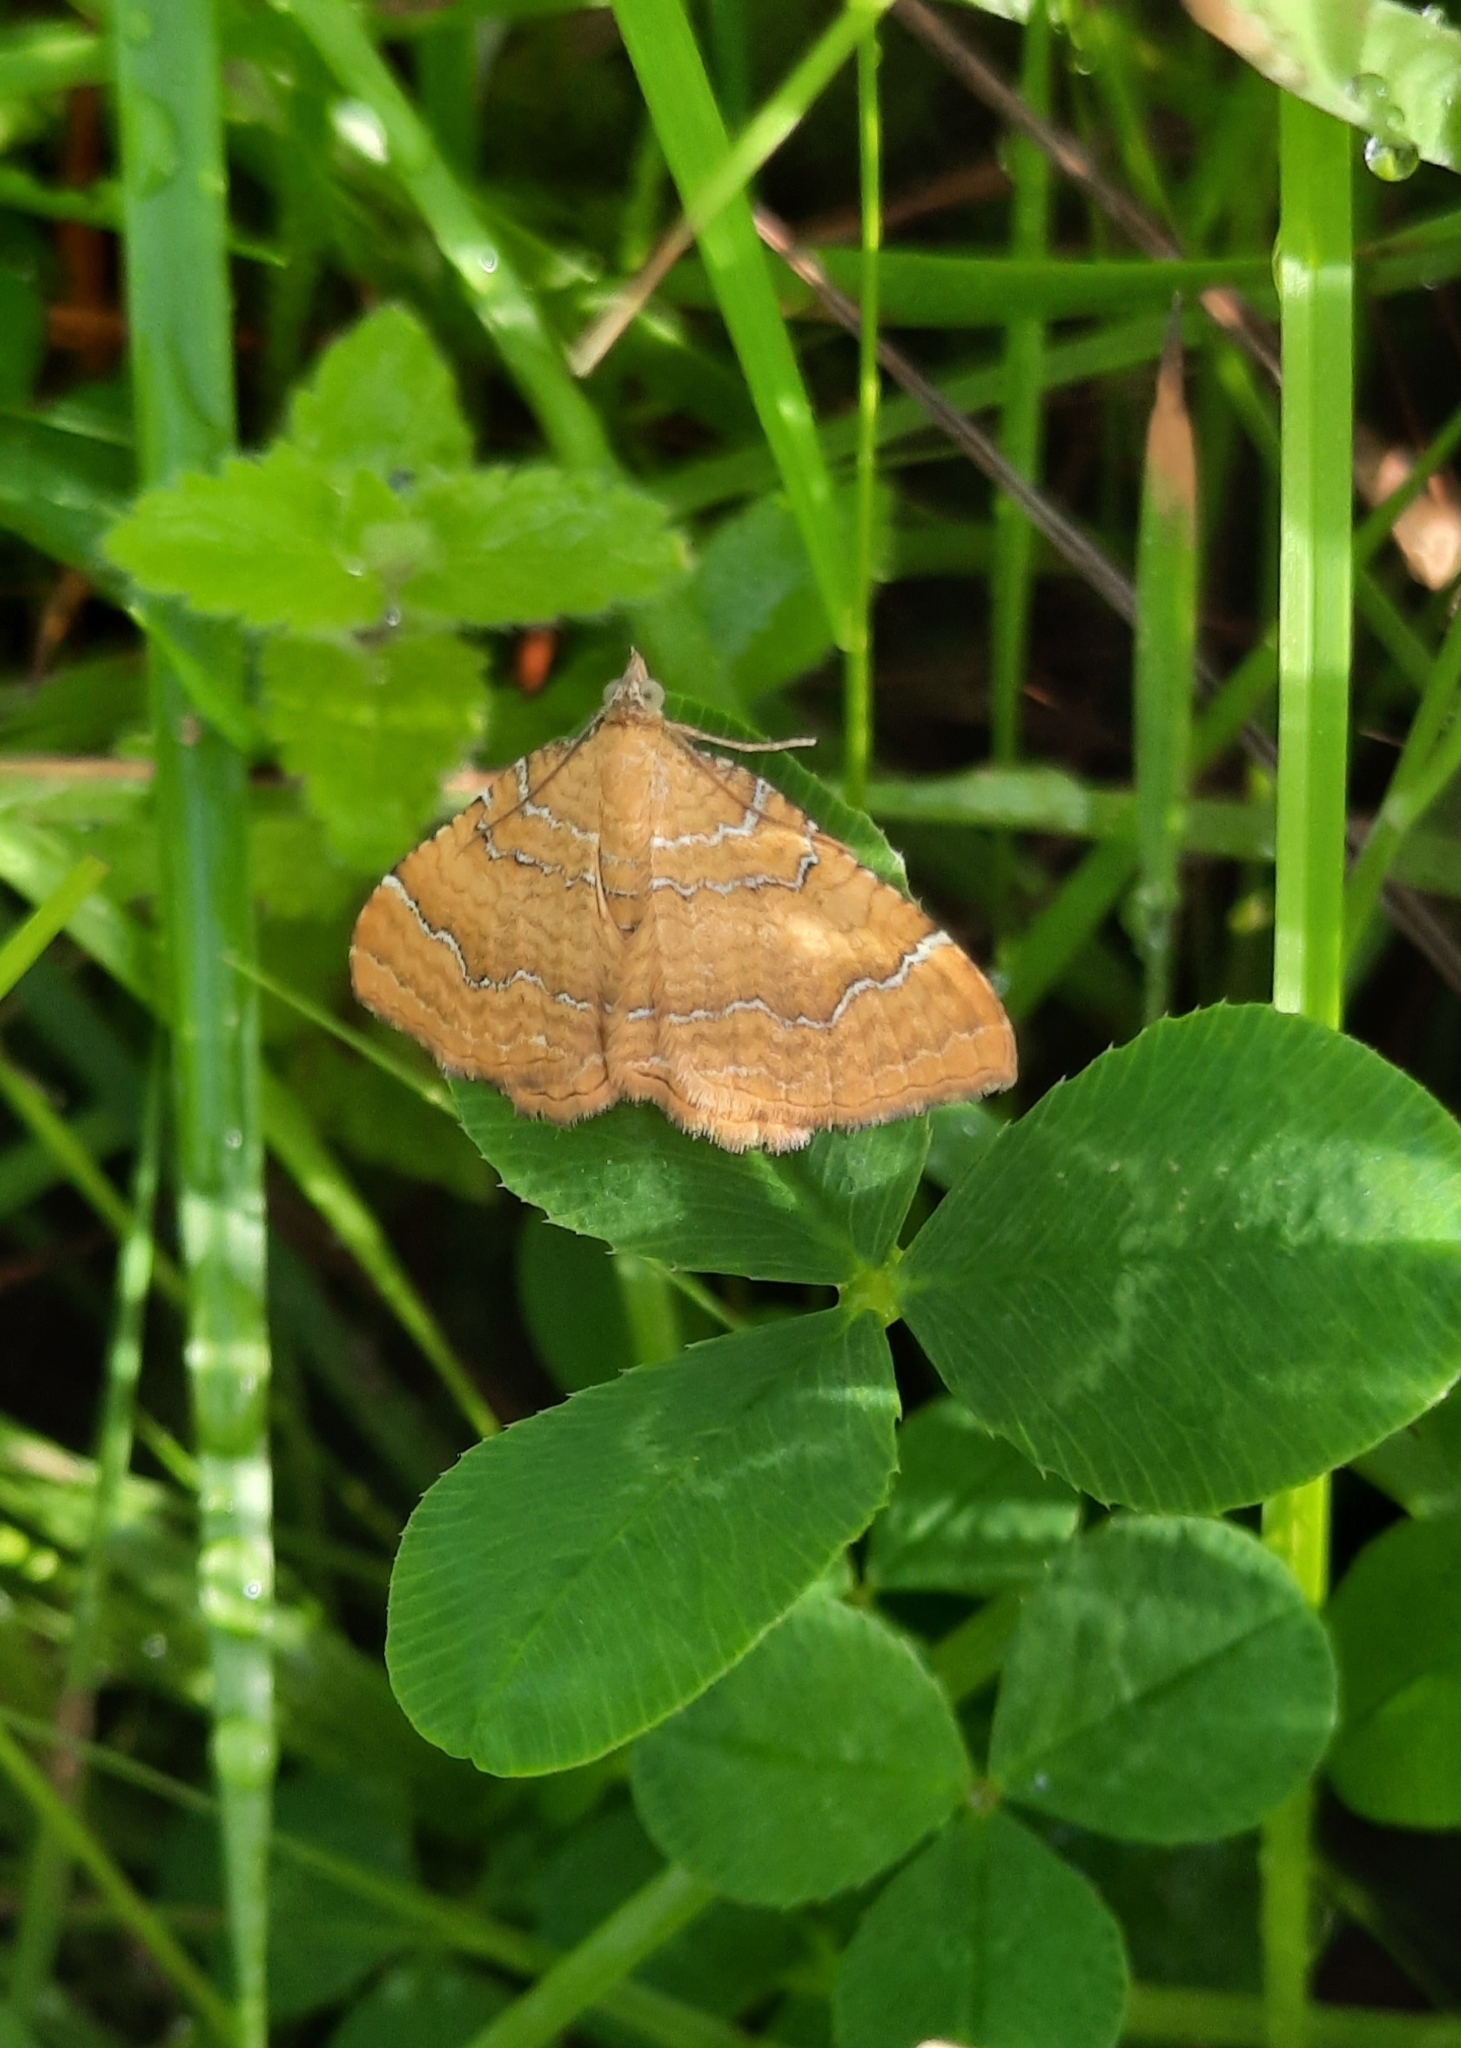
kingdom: Animalia
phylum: Arthropoda
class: Insecta
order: Lepidoptera
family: Geometridae
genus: Camptogramma
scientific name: Camptogramma bilineata
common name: Yellow shell
